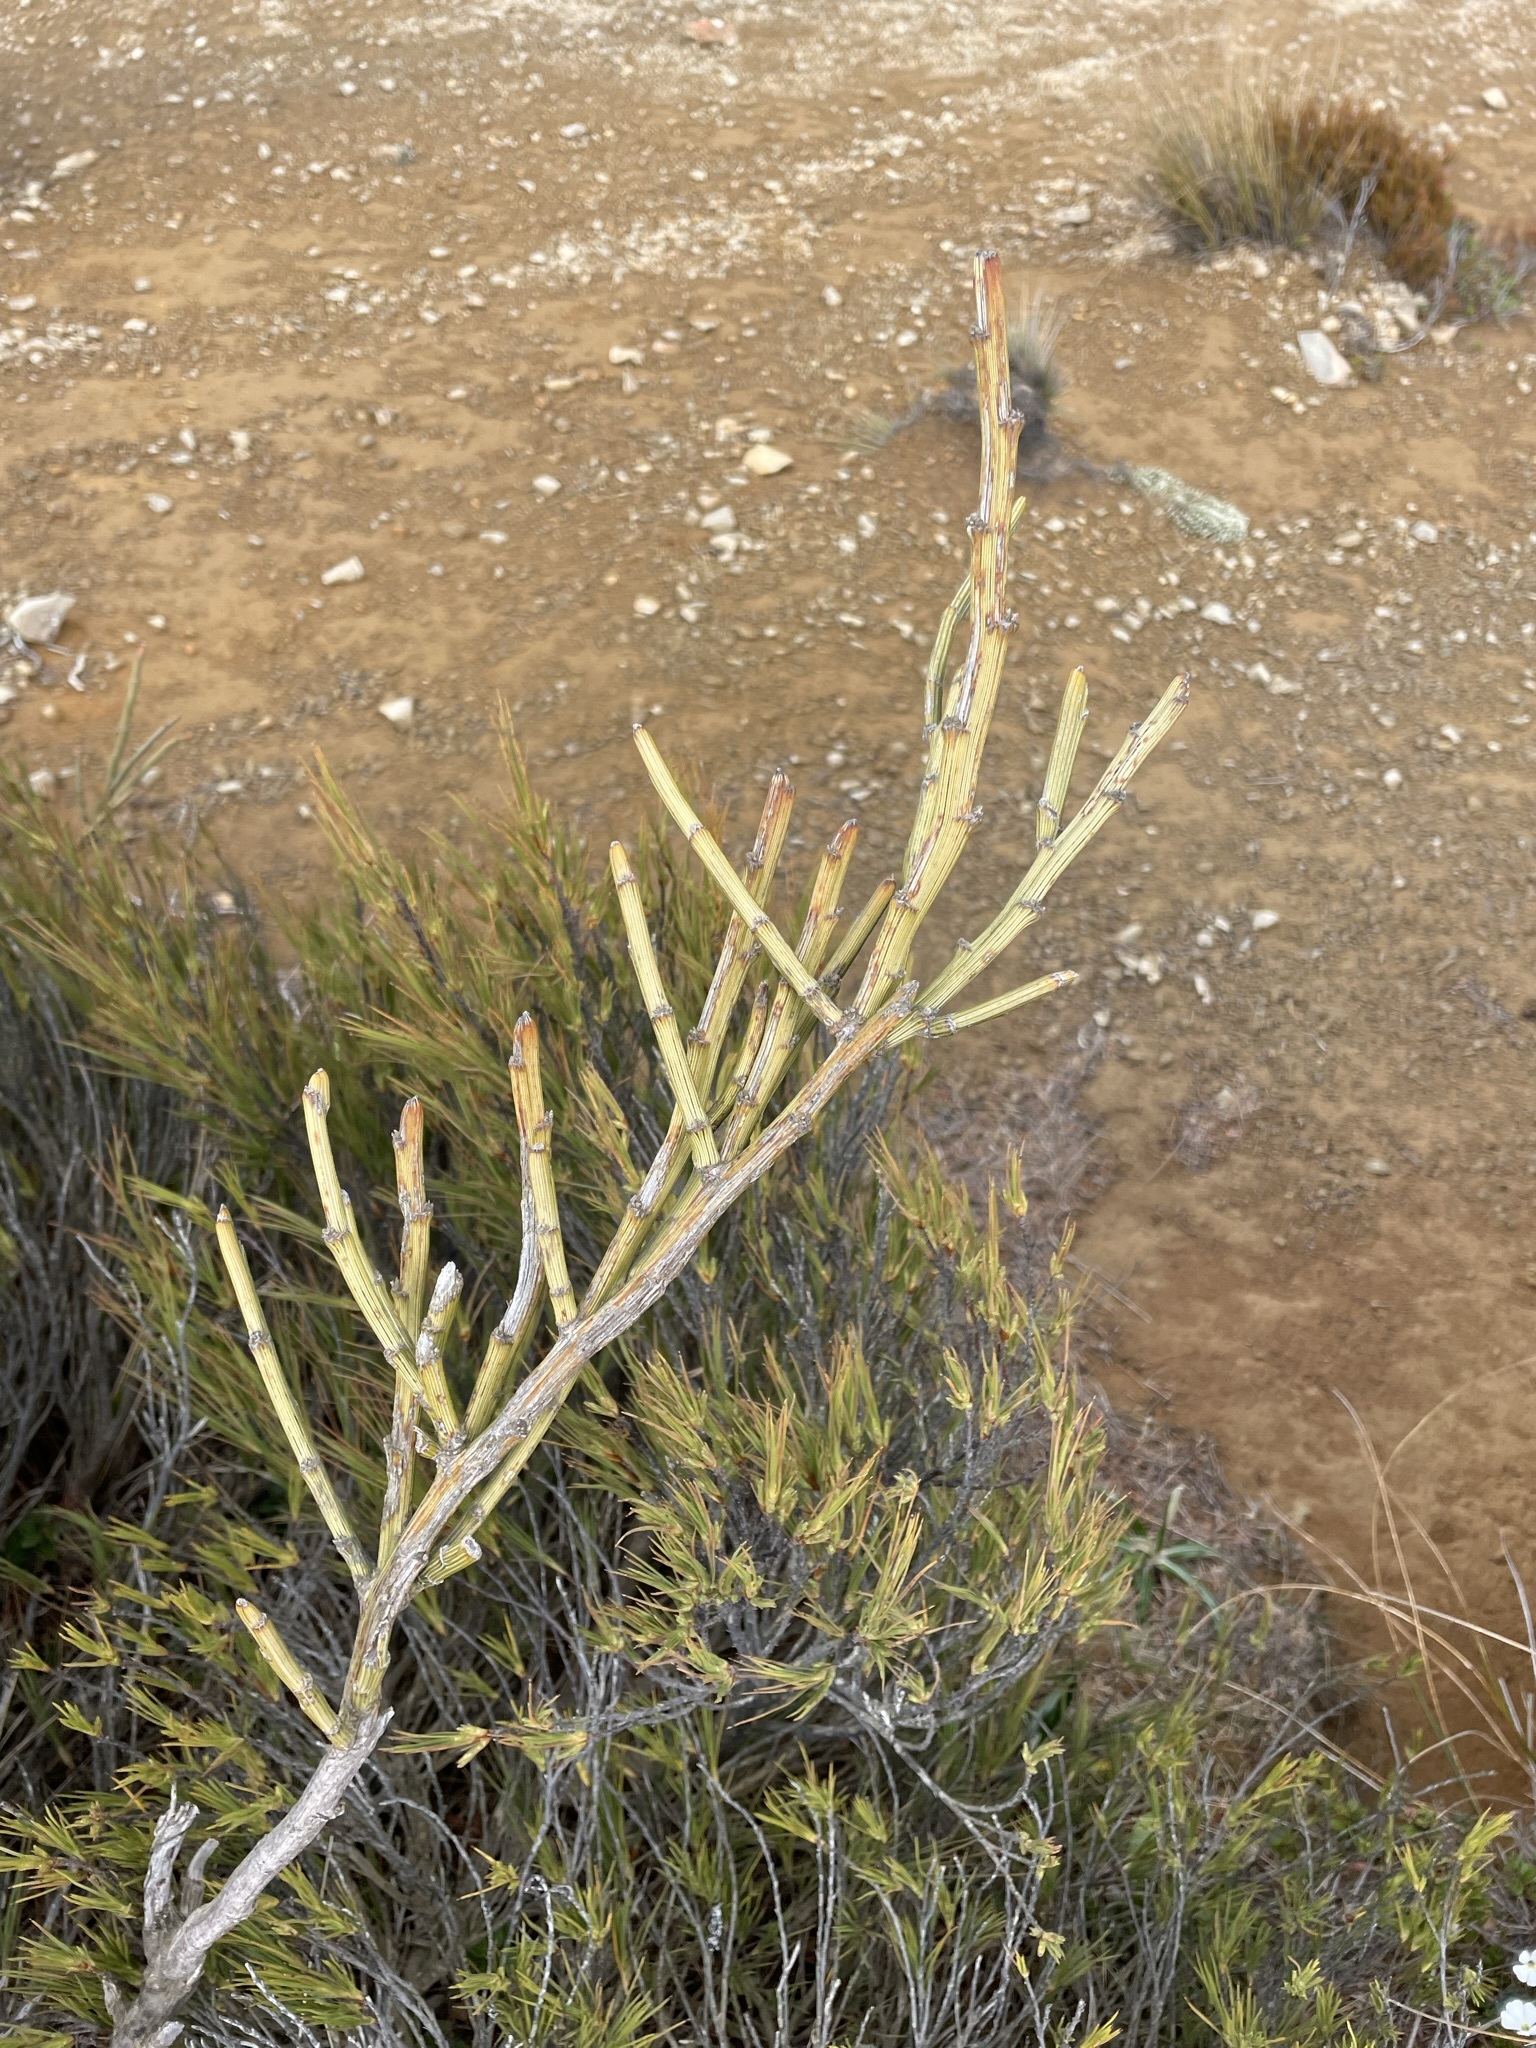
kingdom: Plantae
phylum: Tracheophyta
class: Magnoliopsida
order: Fabales
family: Fabaceae
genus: Carmichaelia
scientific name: Carmichaelia crassicaulis
